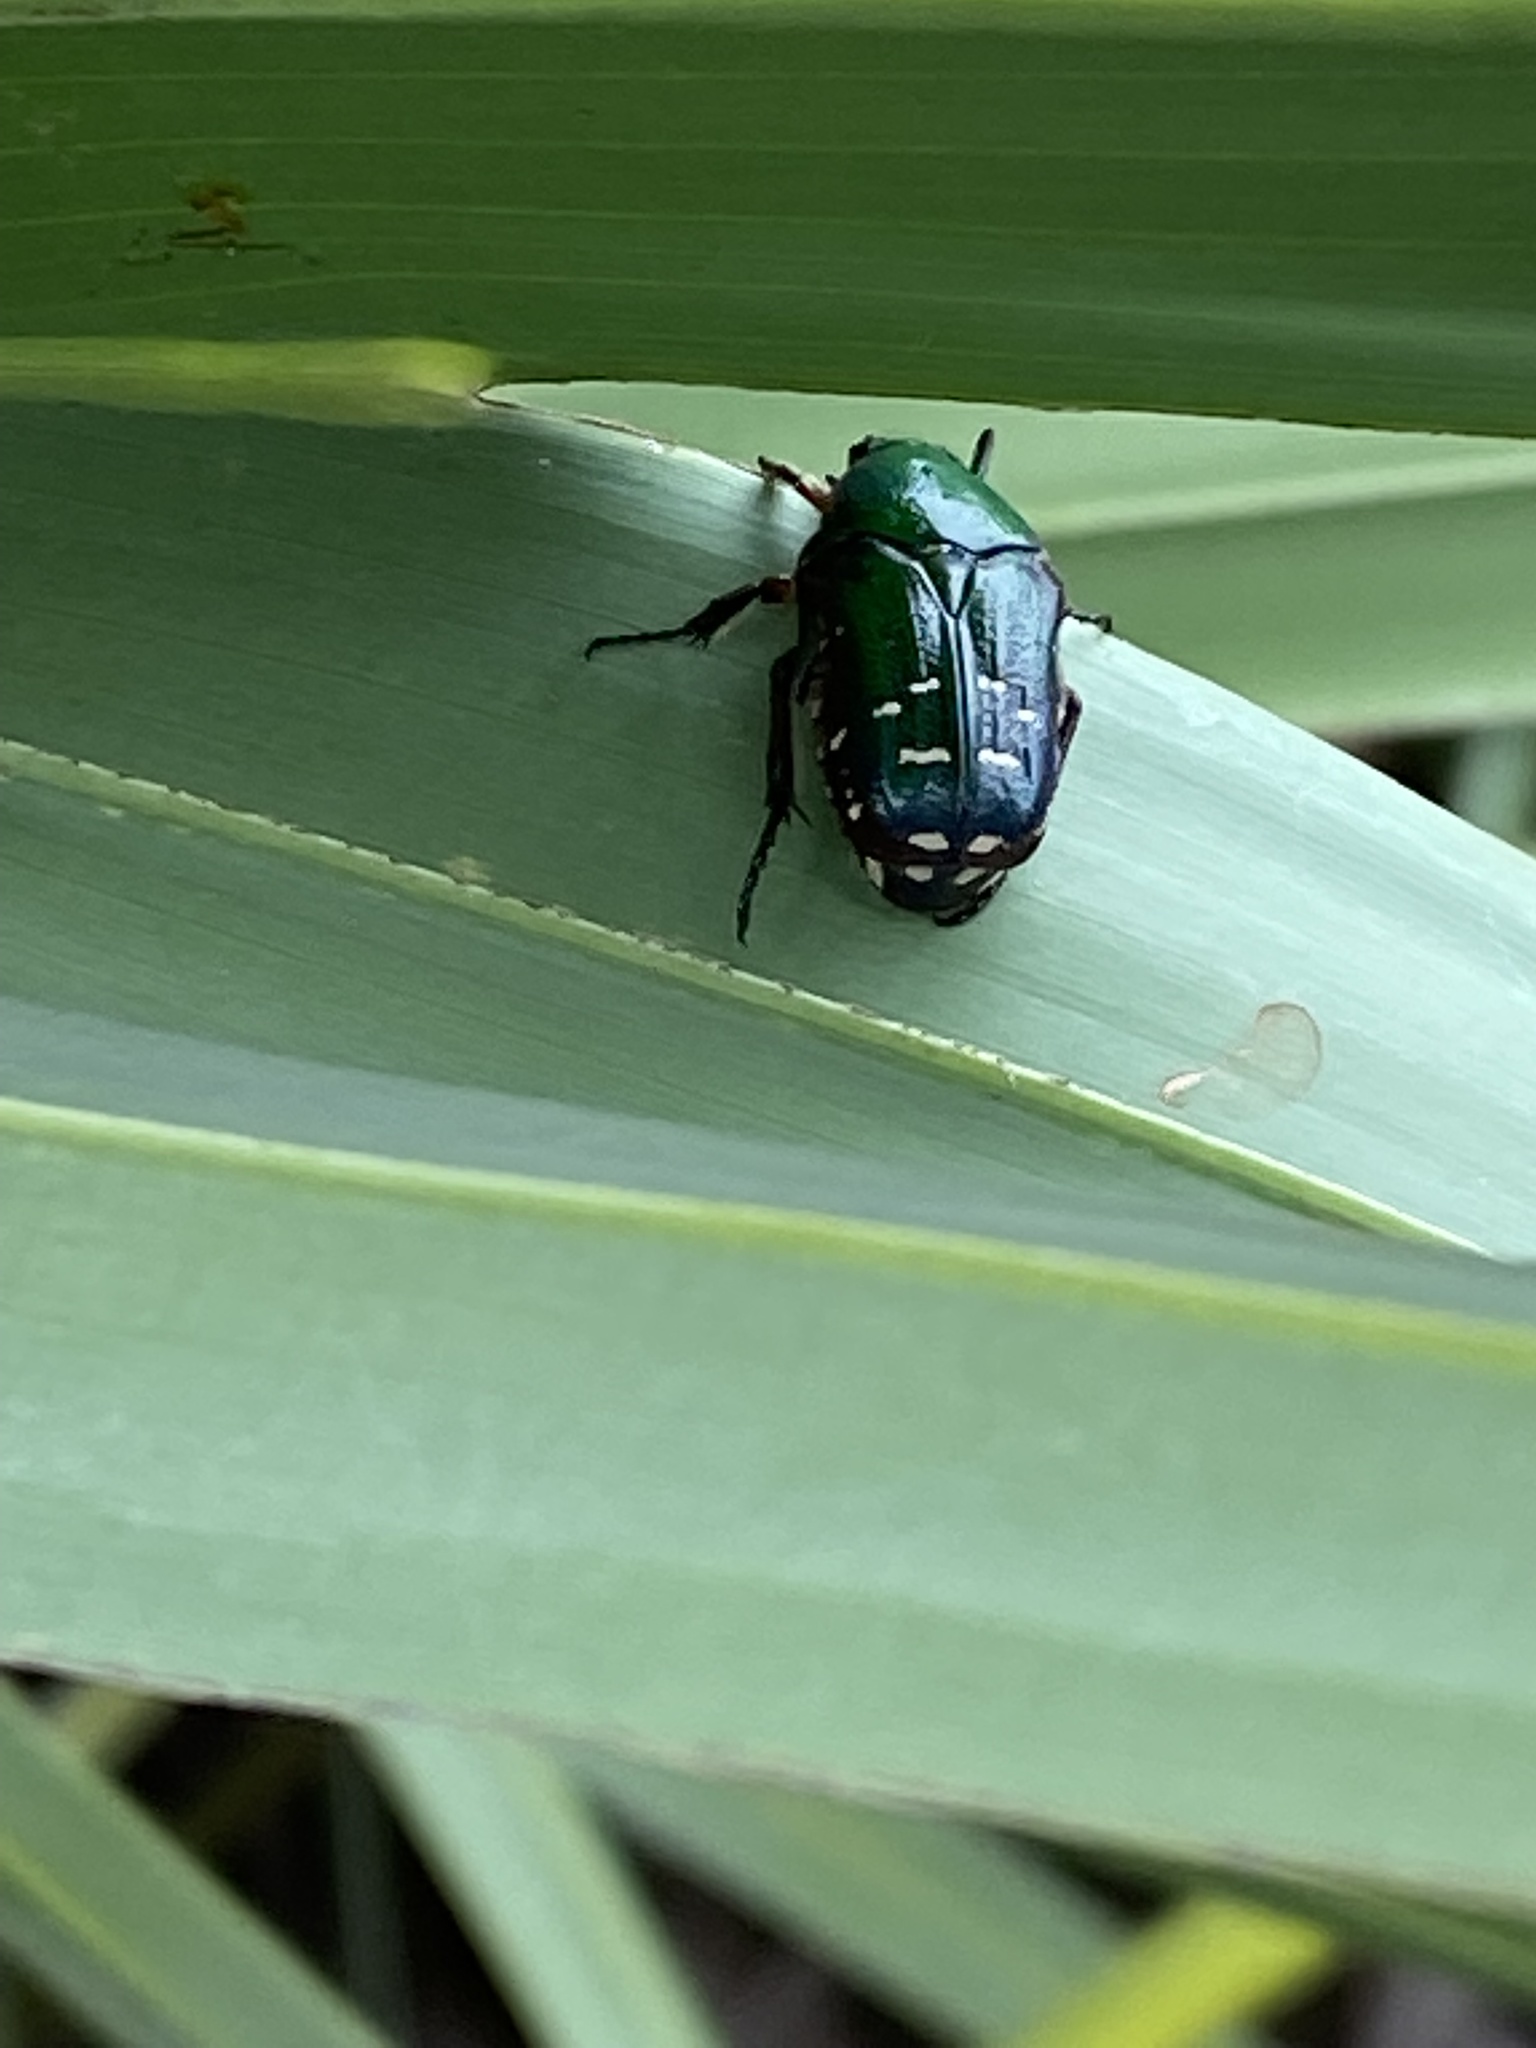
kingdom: Animalia
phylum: Arthropoda
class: Insecta
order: Coleoptera
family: Scarabaeidae
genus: Euphoria
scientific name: Euphoria limbalis
